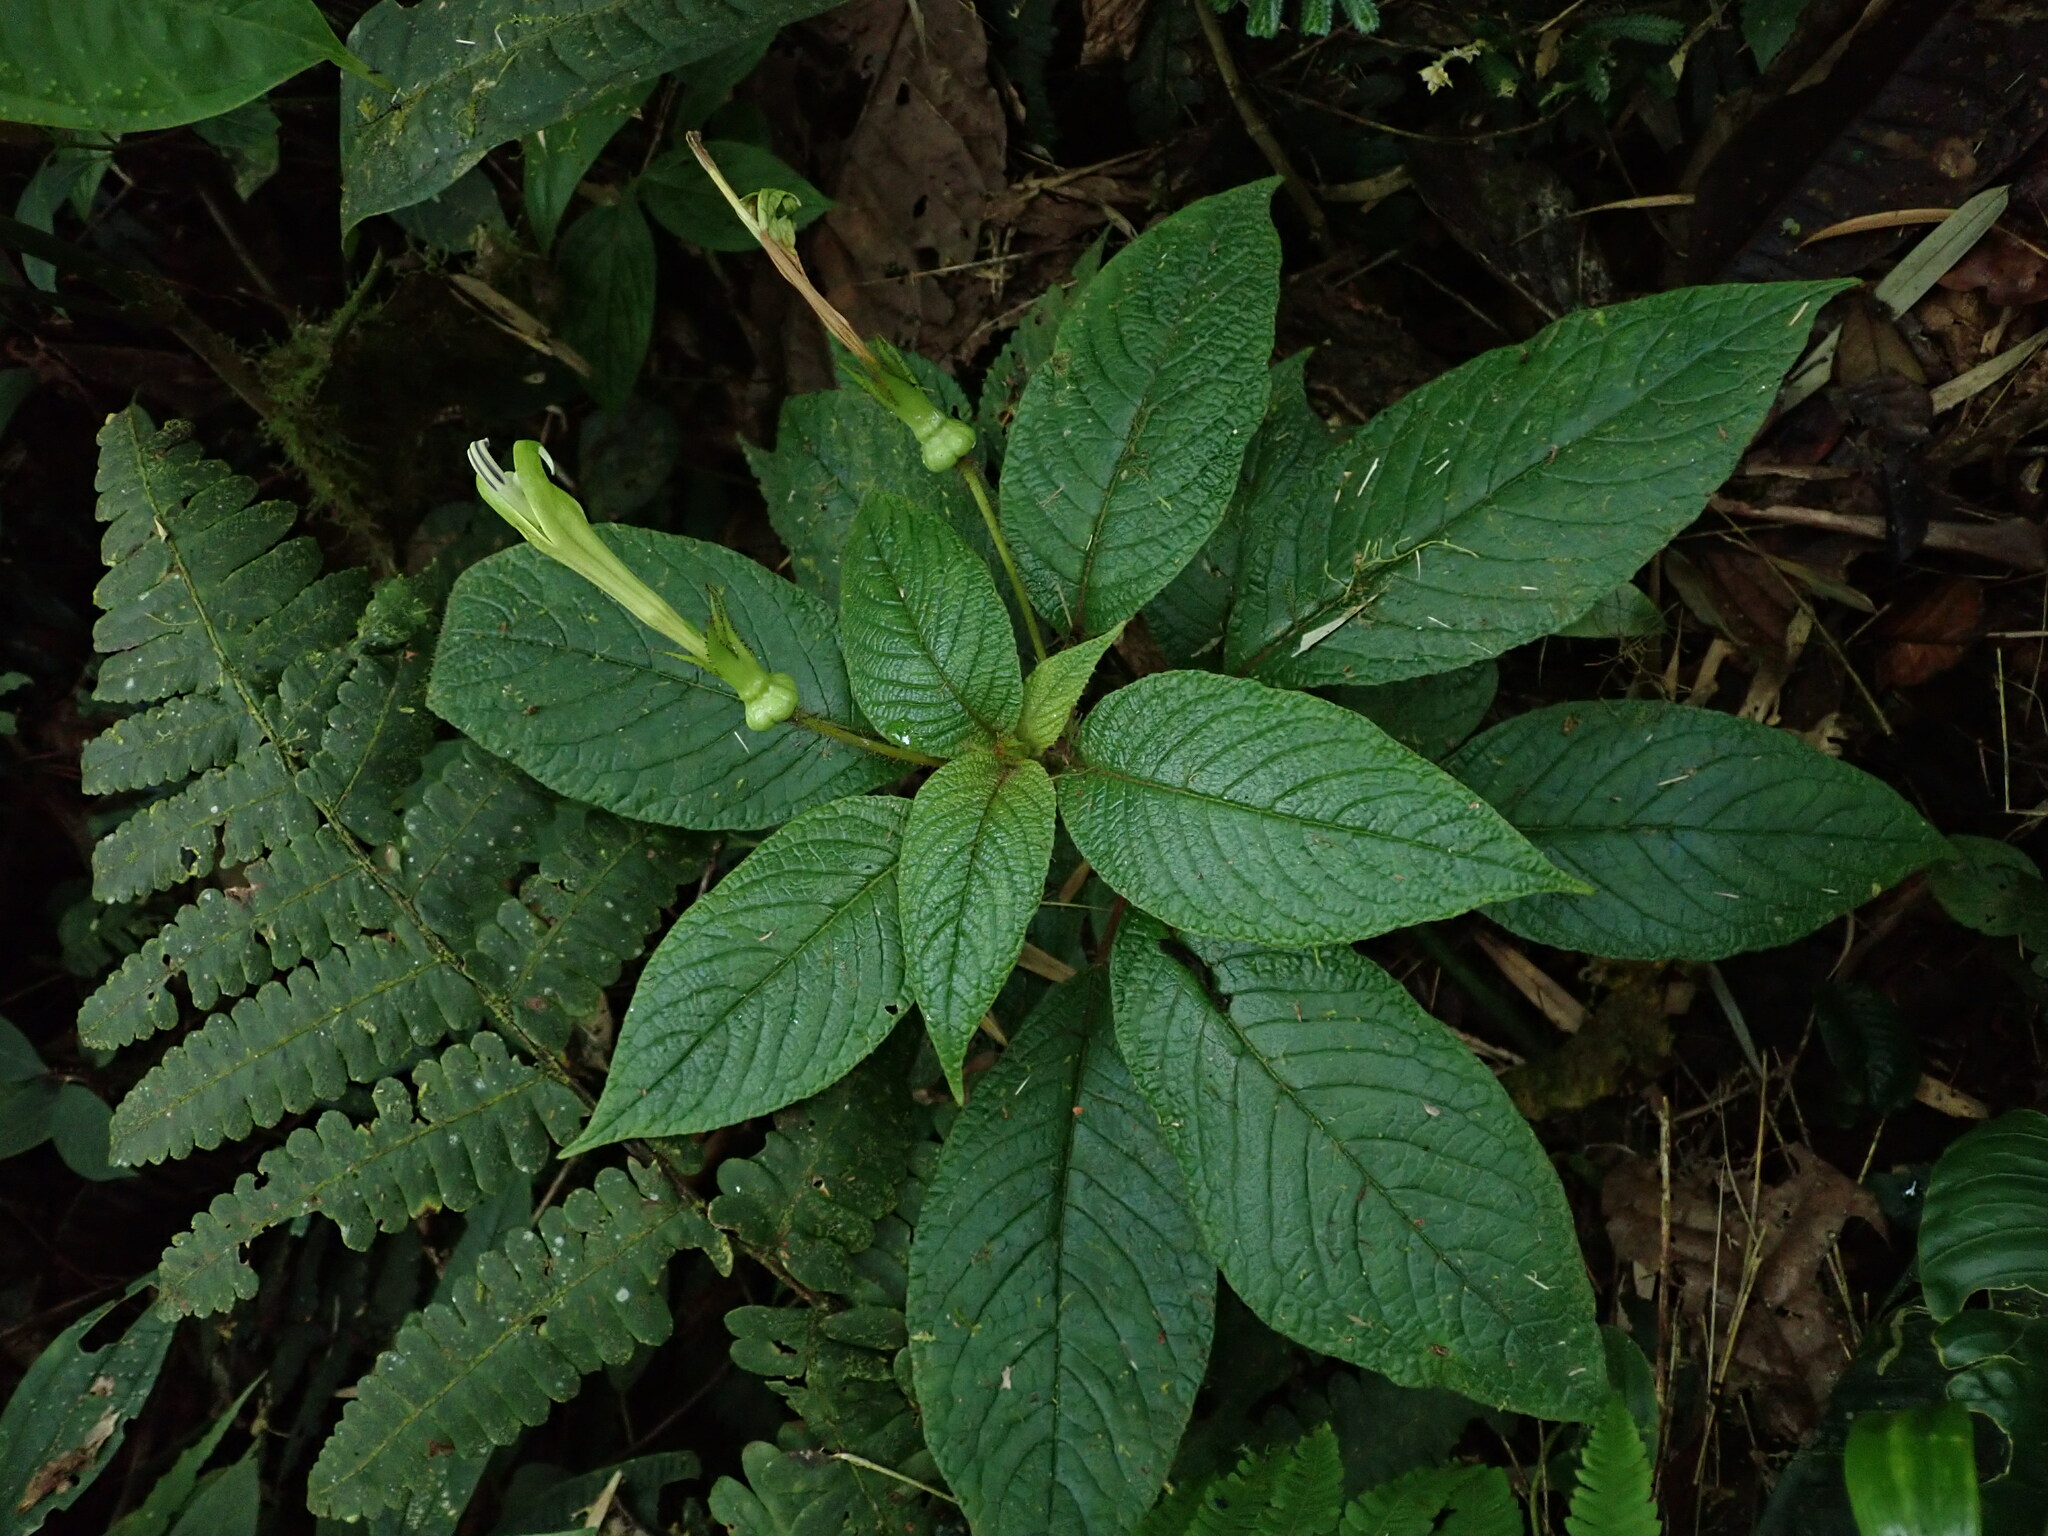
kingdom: Plantae
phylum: Tracheophyta
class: Magnoliopsida
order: Asterales
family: Campanulaceae
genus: Centropogon
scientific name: Centropogon nigricans
